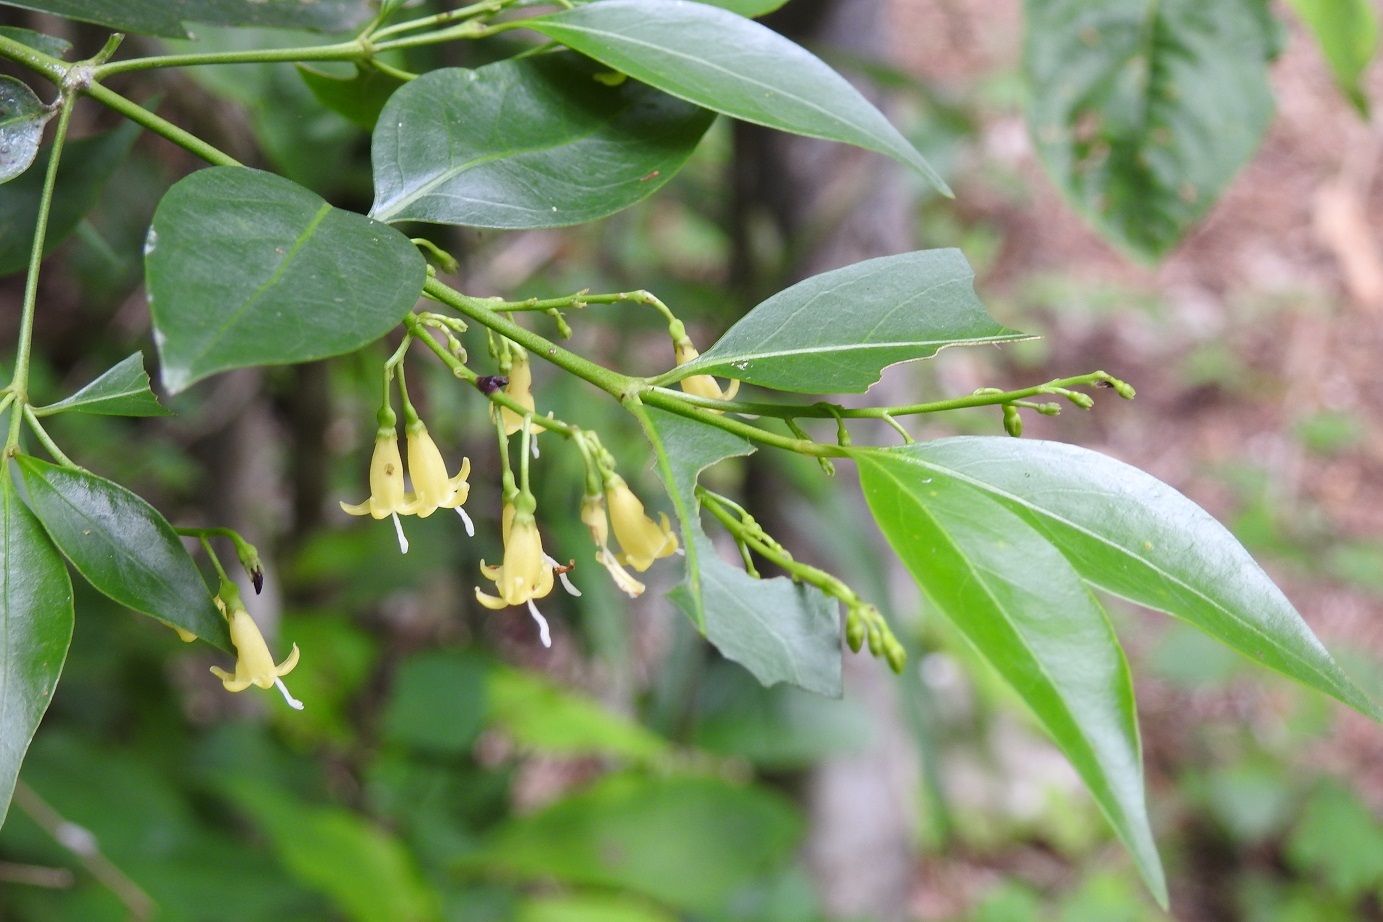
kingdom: Plantae
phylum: Tracheophyta
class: Magnoliopsida
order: Gentianales
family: Rubiaceae
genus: Chiococca
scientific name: Chiococca alba
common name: Snowberry
